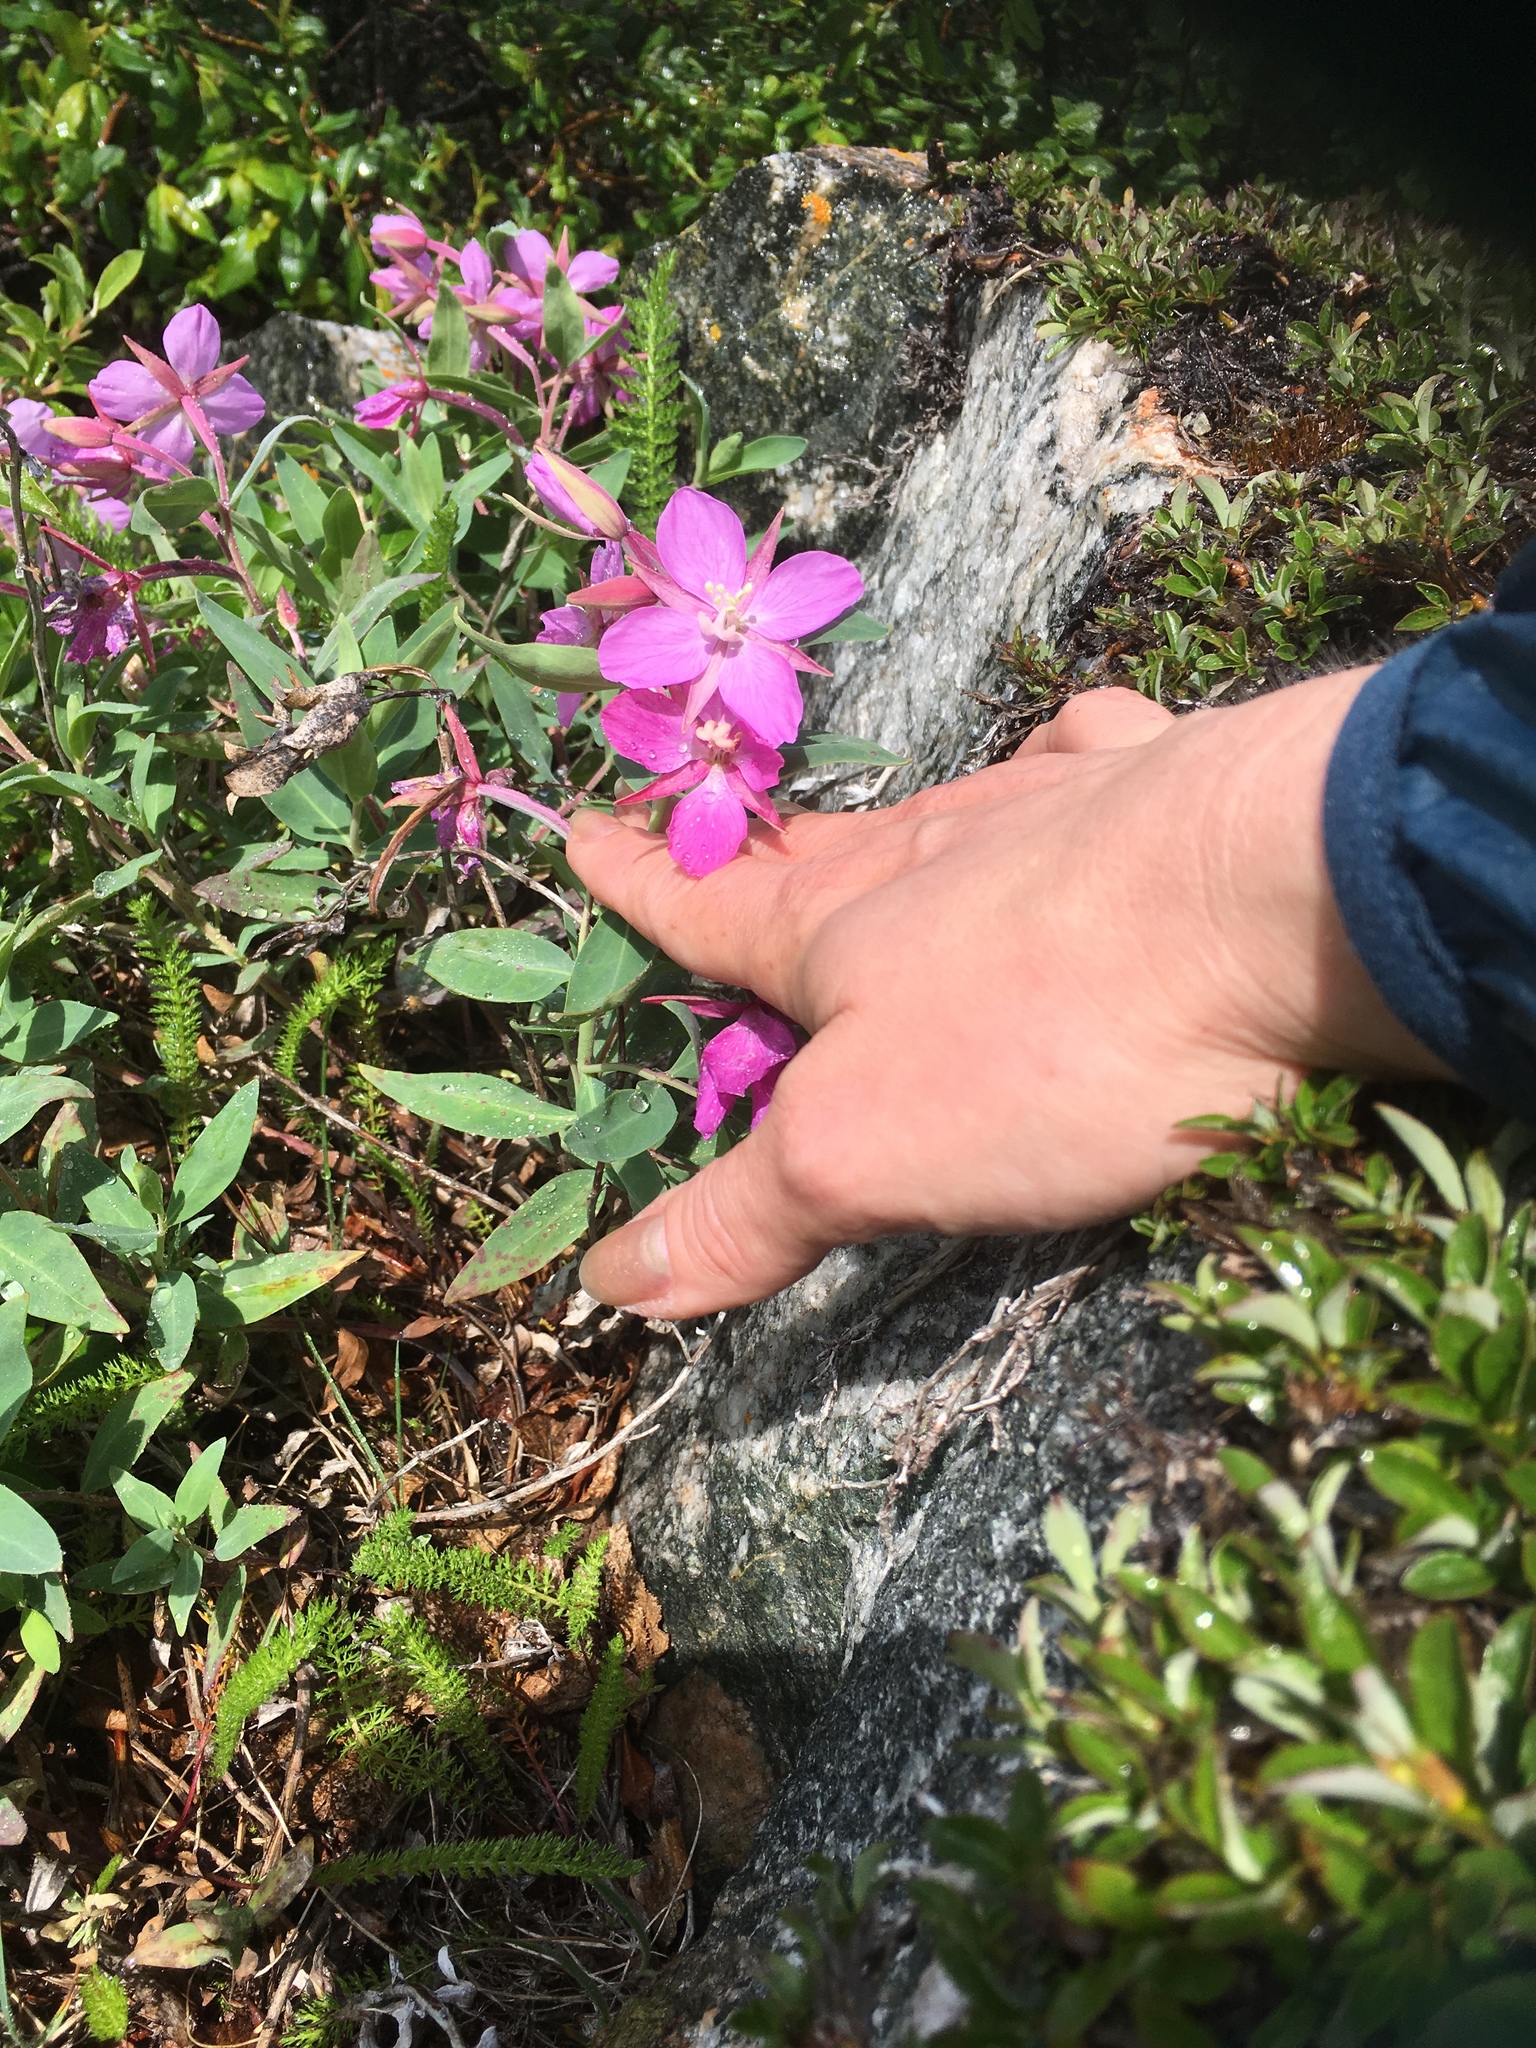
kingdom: Plantae
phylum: Tracheophyta
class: Magnoliopsida
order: Myrtales
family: Onagraceae
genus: Chamaenerion
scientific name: Chamaenerion latifolium
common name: Dwarf fireweed
